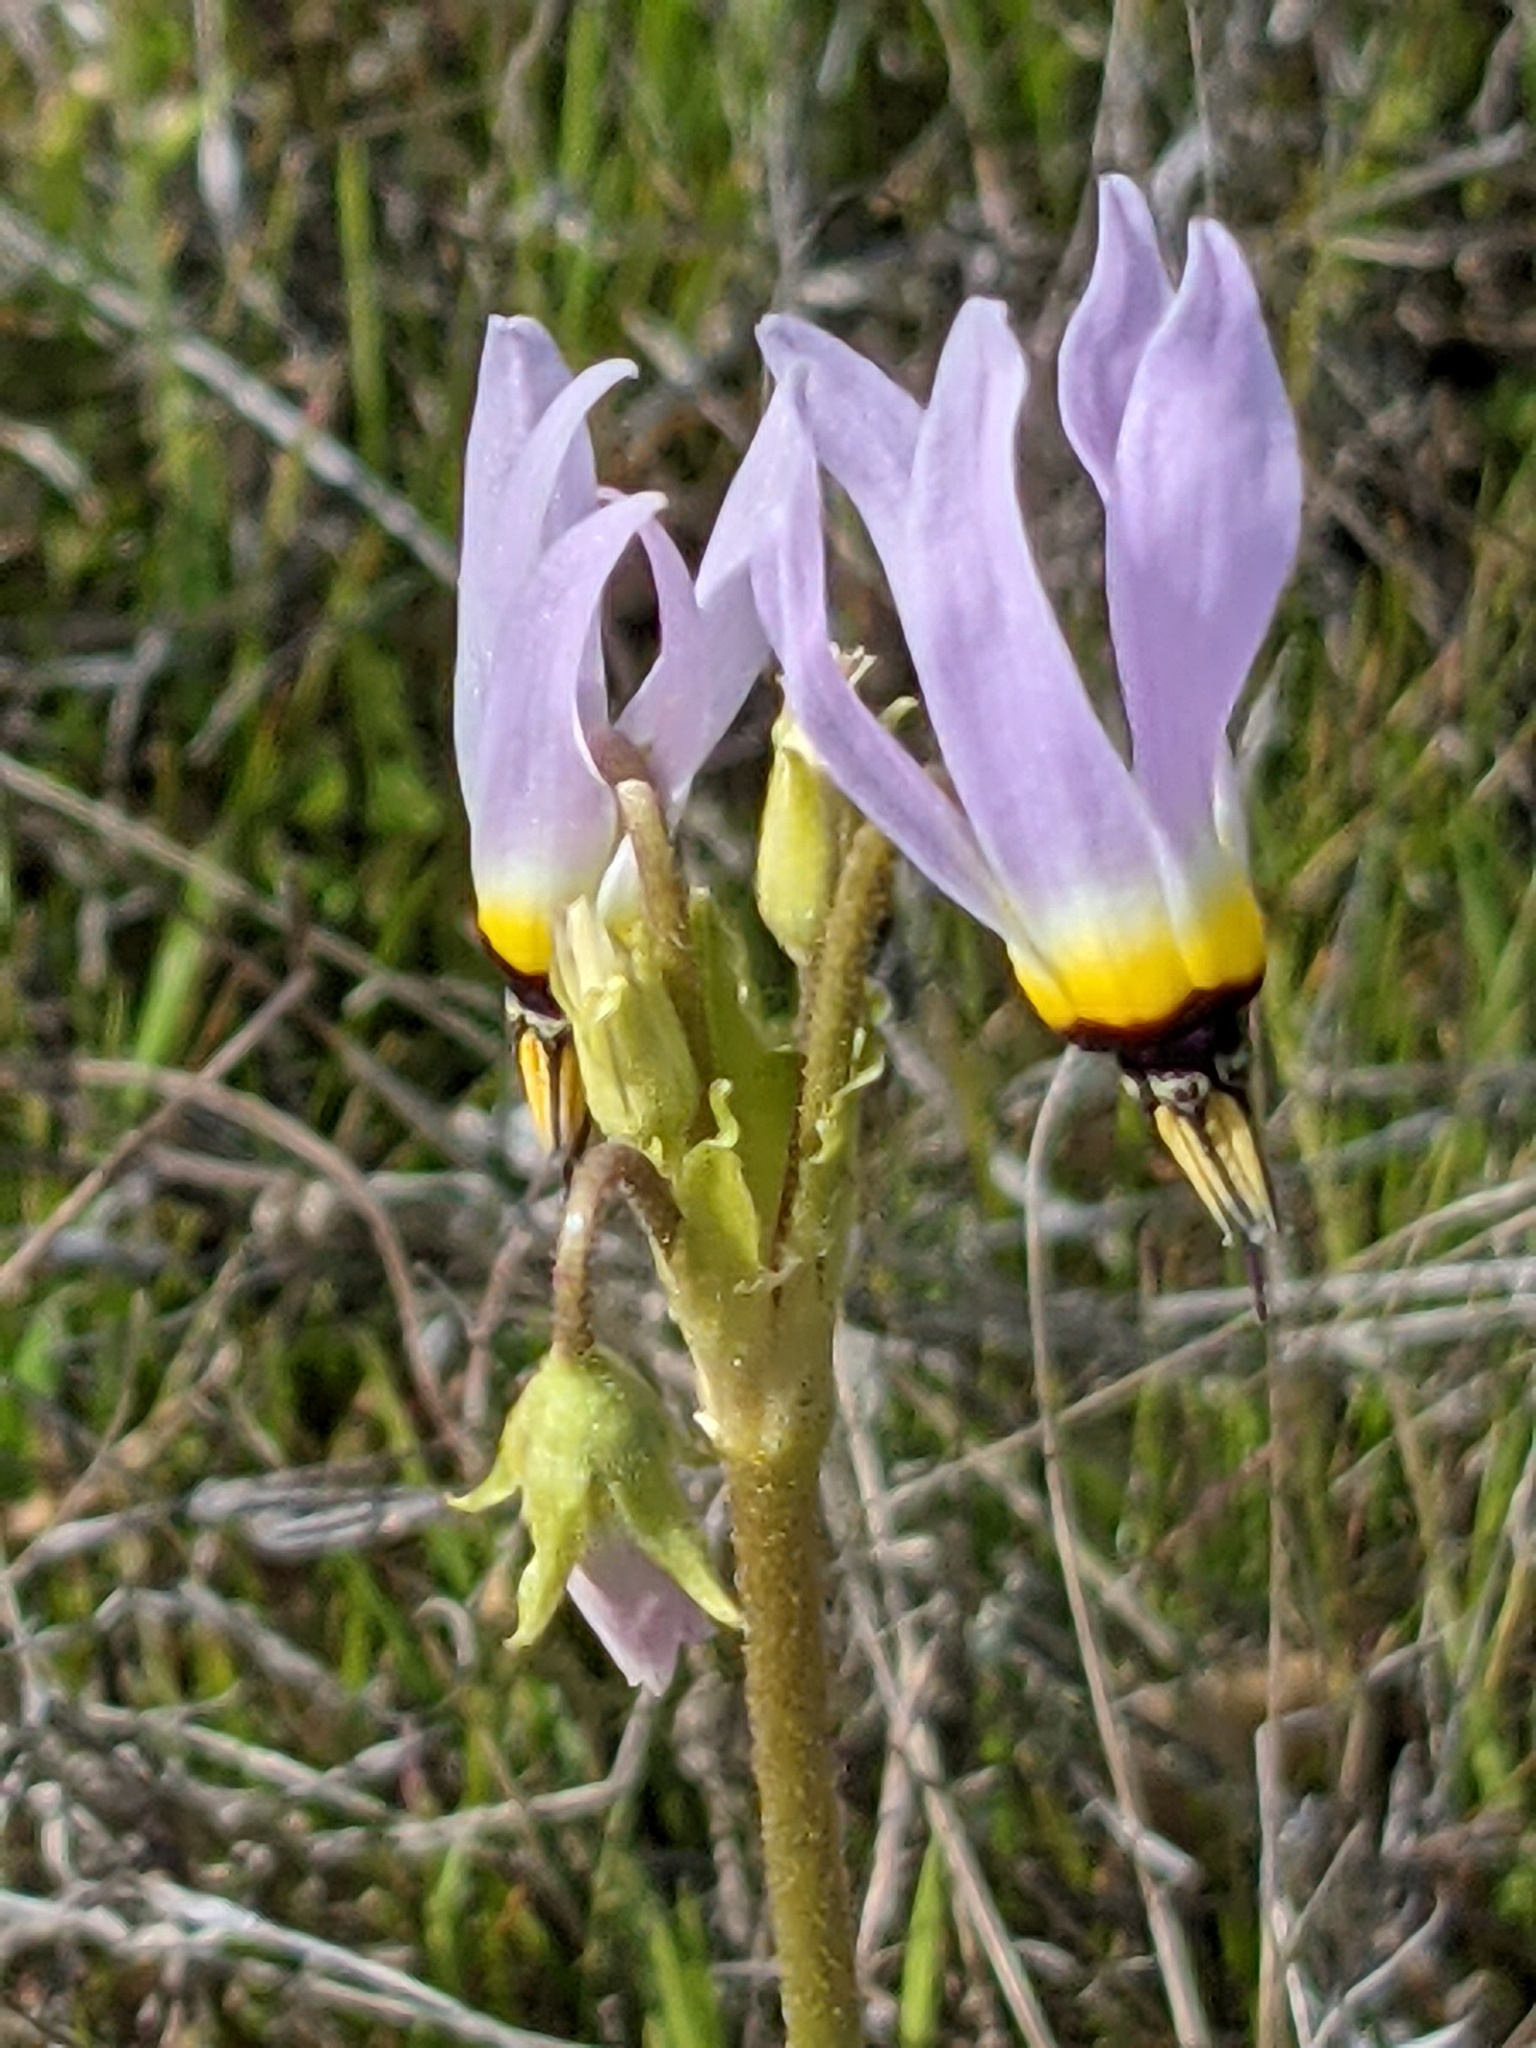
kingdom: Plantae
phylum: Tracheophyta
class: Magnoliopsida
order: Ericales
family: Primulaceae
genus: Dodecatheon
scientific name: Dodecatheon clevelandii
